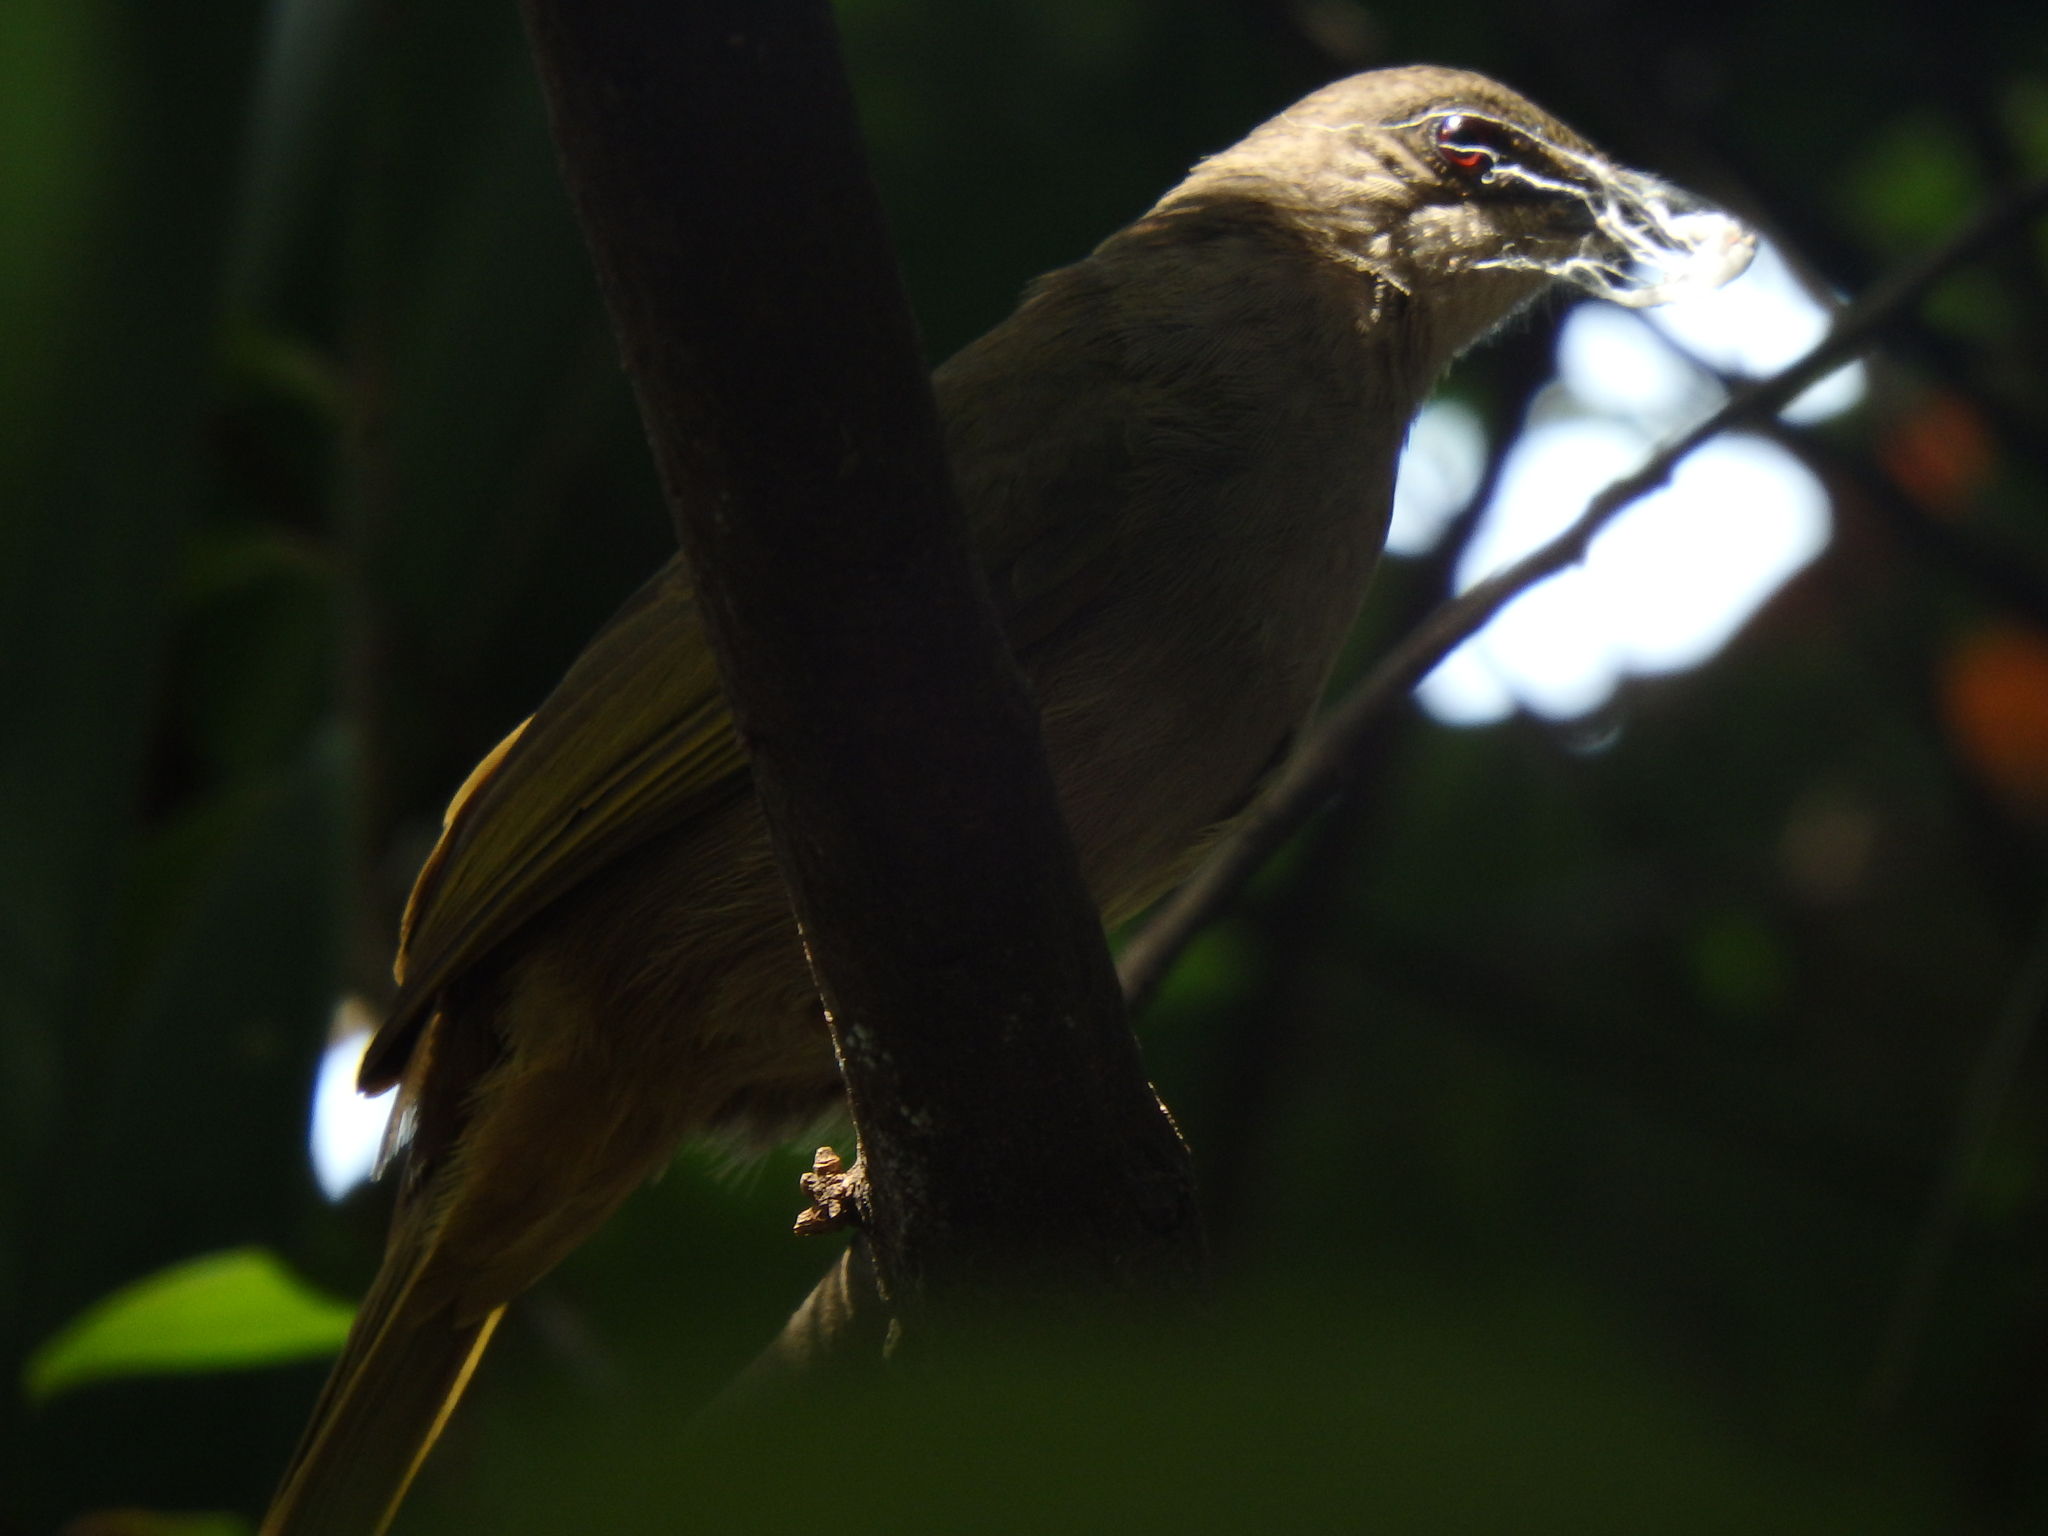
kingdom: Animalia
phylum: Chordata
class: Aves
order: Passeriformes
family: Pycnonotidae
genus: Pycnonotus
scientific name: Pycnonotus plumosus
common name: Olive-winged bulbul
